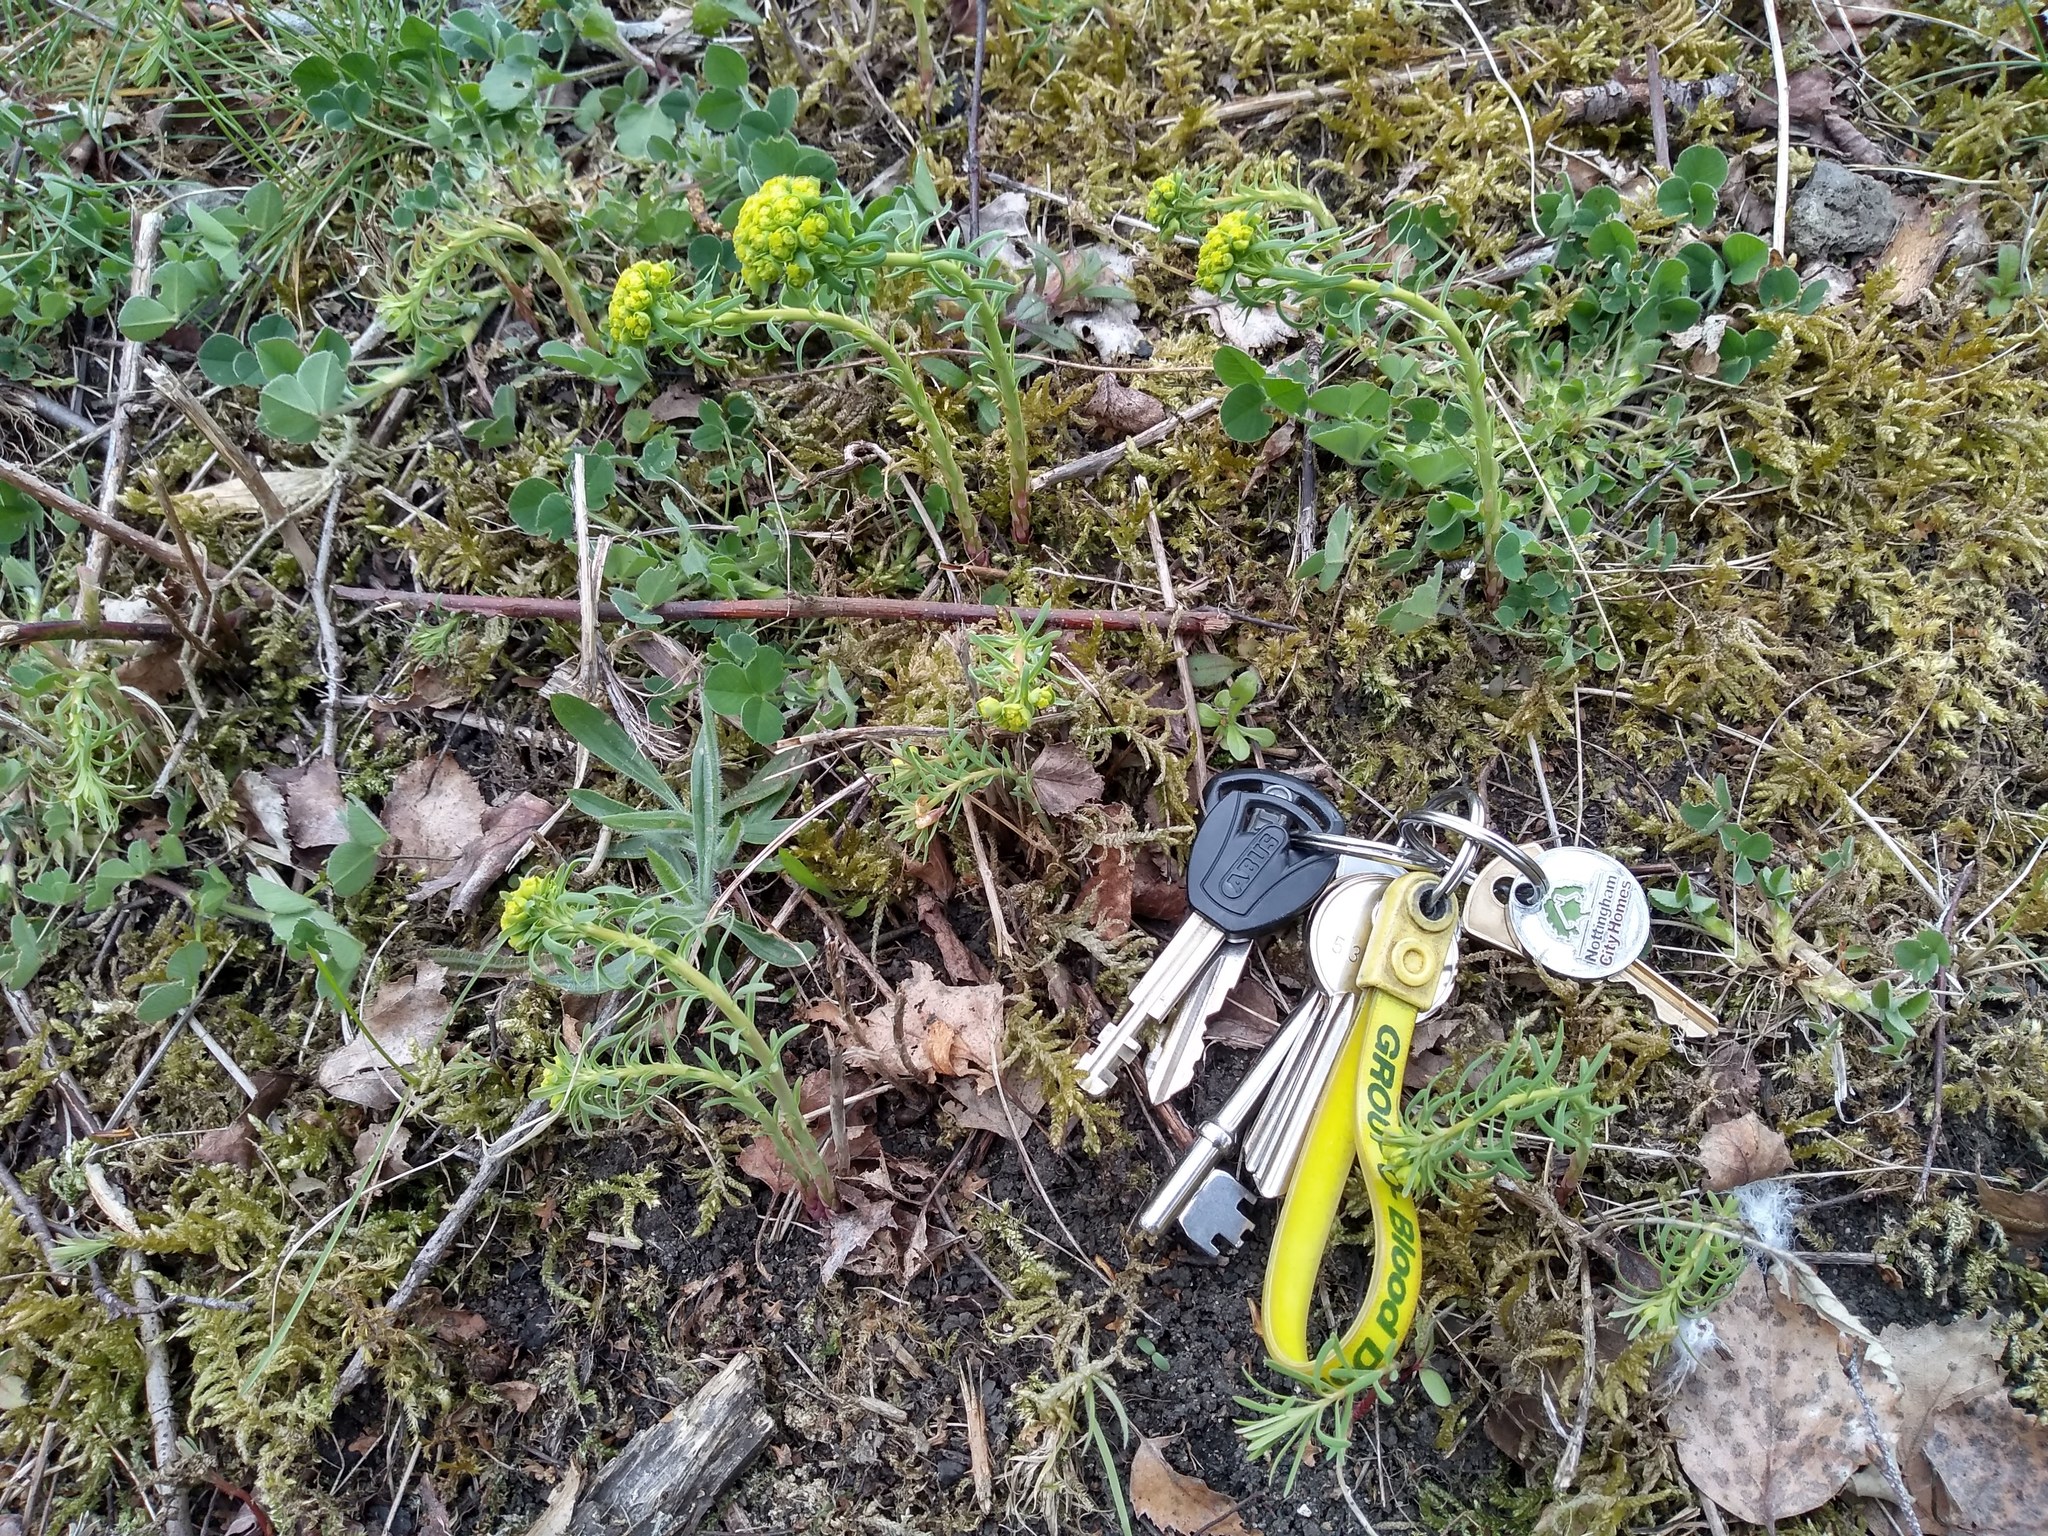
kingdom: Plantae
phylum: Tracheophyta
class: Magnoliopsida
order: Malpighiales
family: Euphorbiaceae
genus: Euphorbia
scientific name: Euphorbia cyparissias
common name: Cypress spurge
